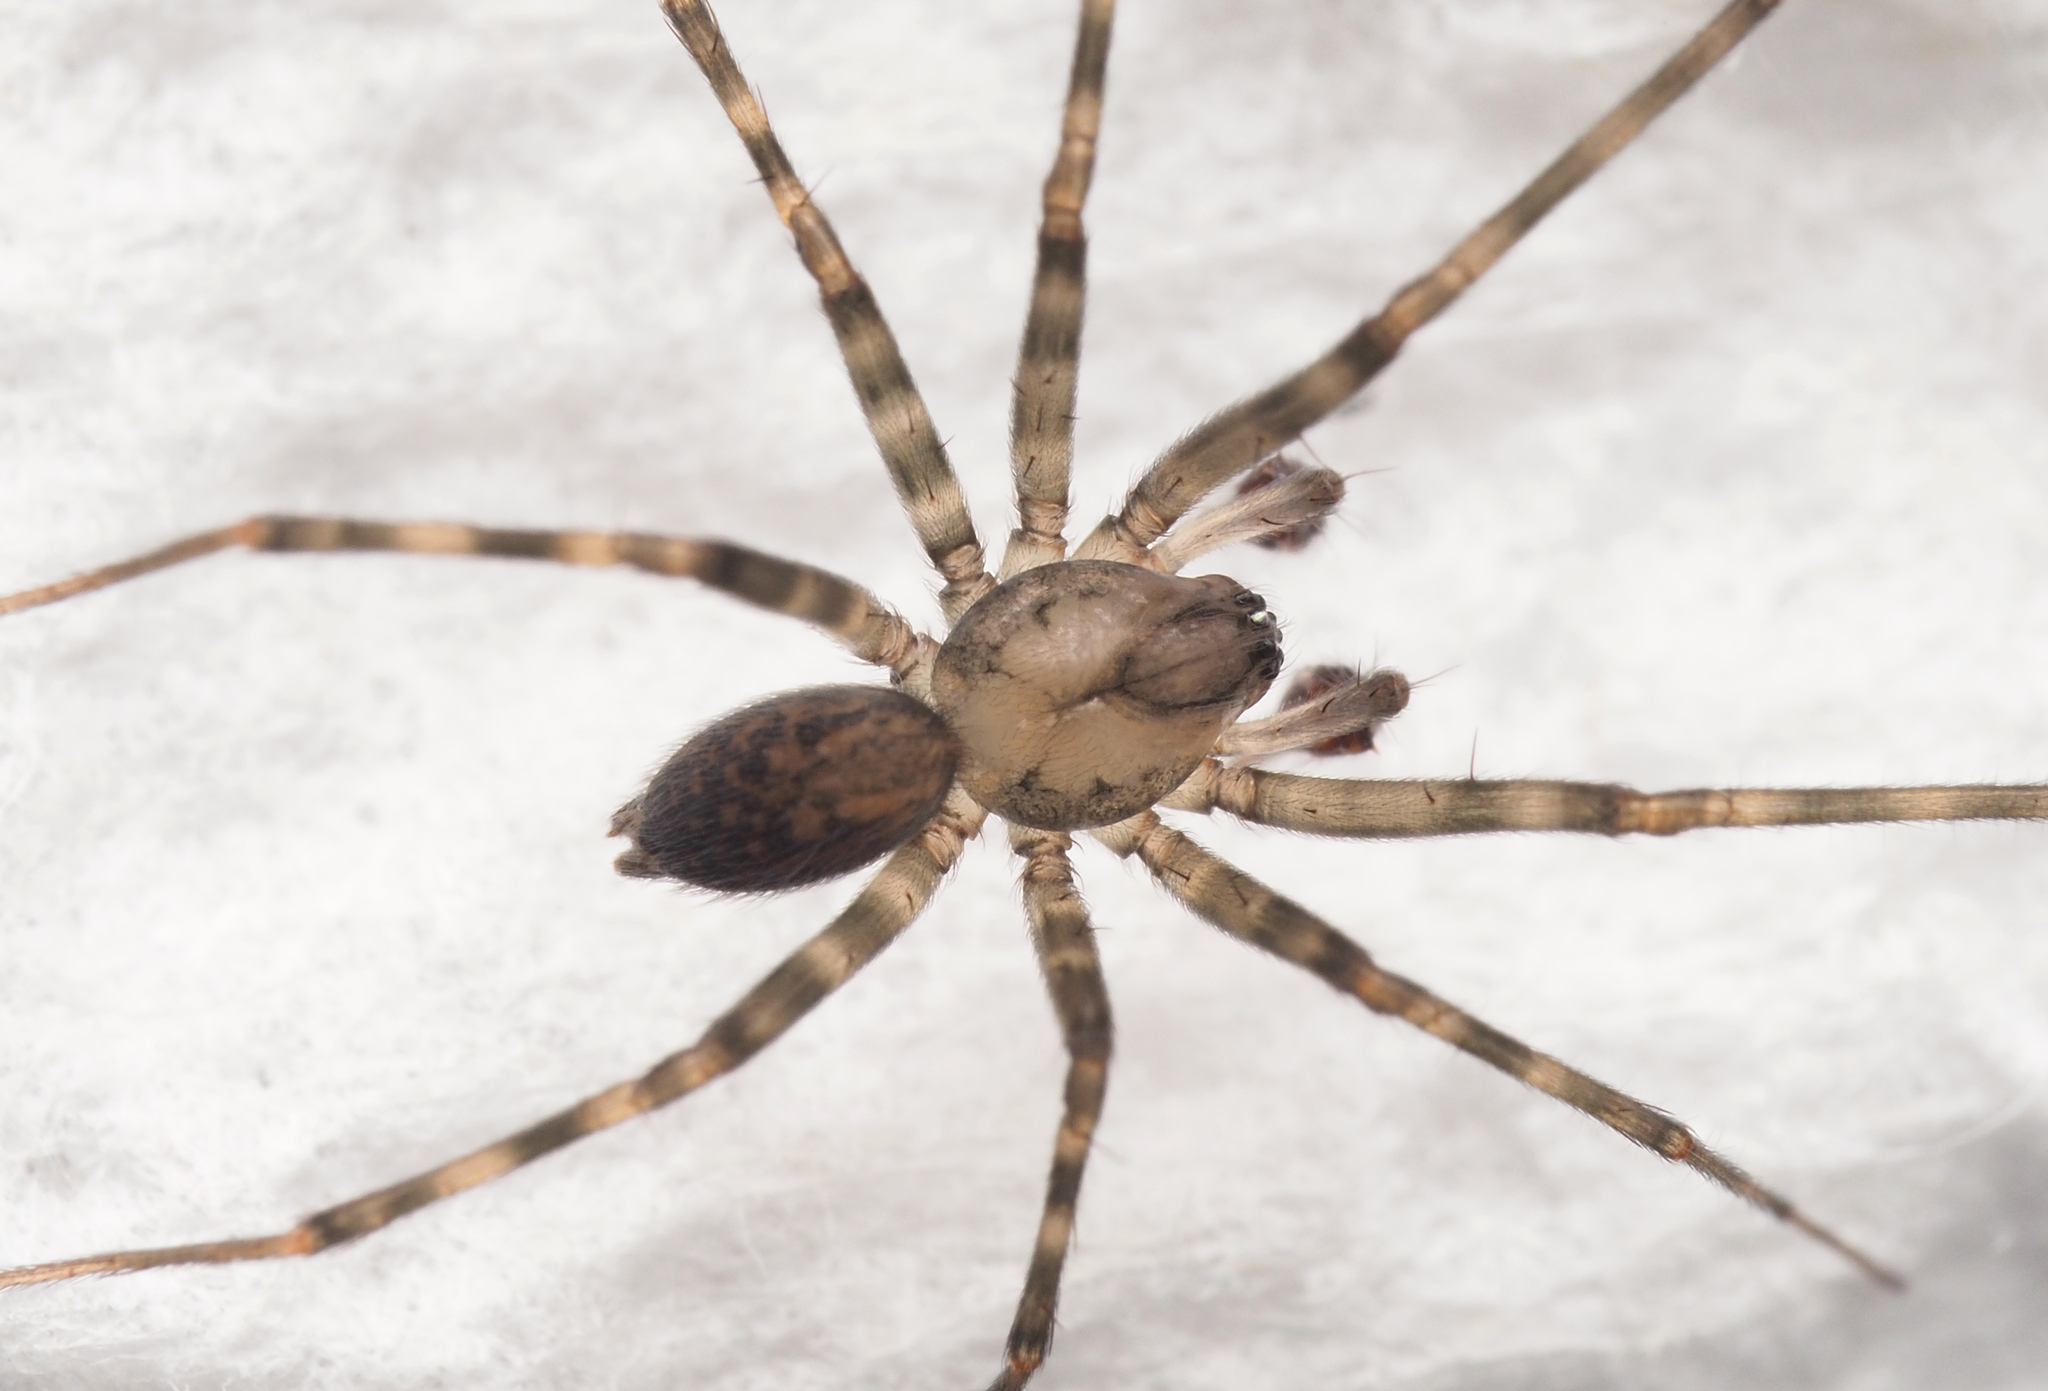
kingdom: Animalia
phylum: Arthropoda
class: Arachnida
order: Araneae
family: Stiphidiidae
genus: Procambridgea
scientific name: Procambridgea hilleri
